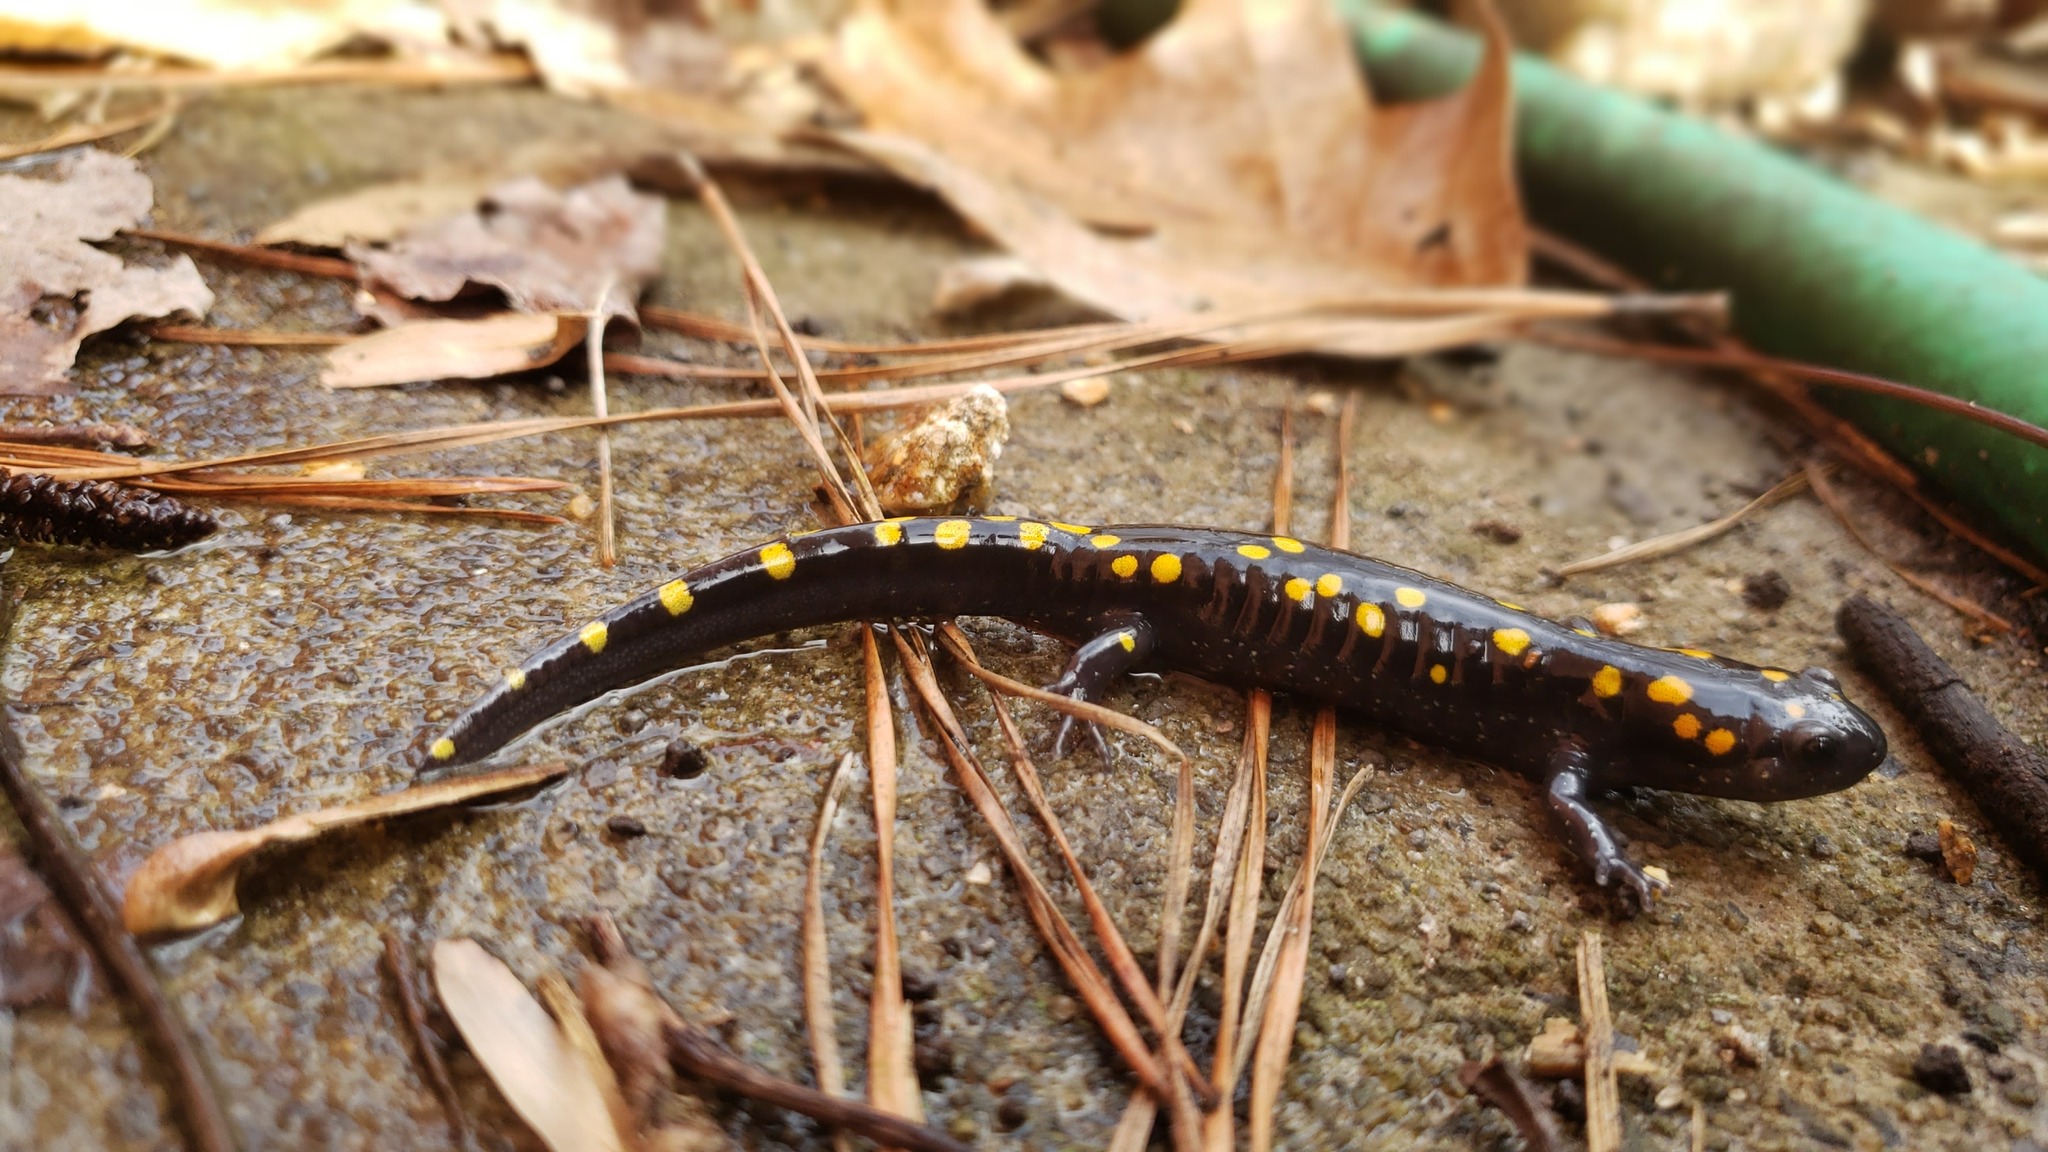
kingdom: Animalia
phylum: Chordata
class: Amphibia
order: Caudata
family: Ambystomatidae
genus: Ambystoma
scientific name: Ambystoma maculatum
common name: Spotted salamander
